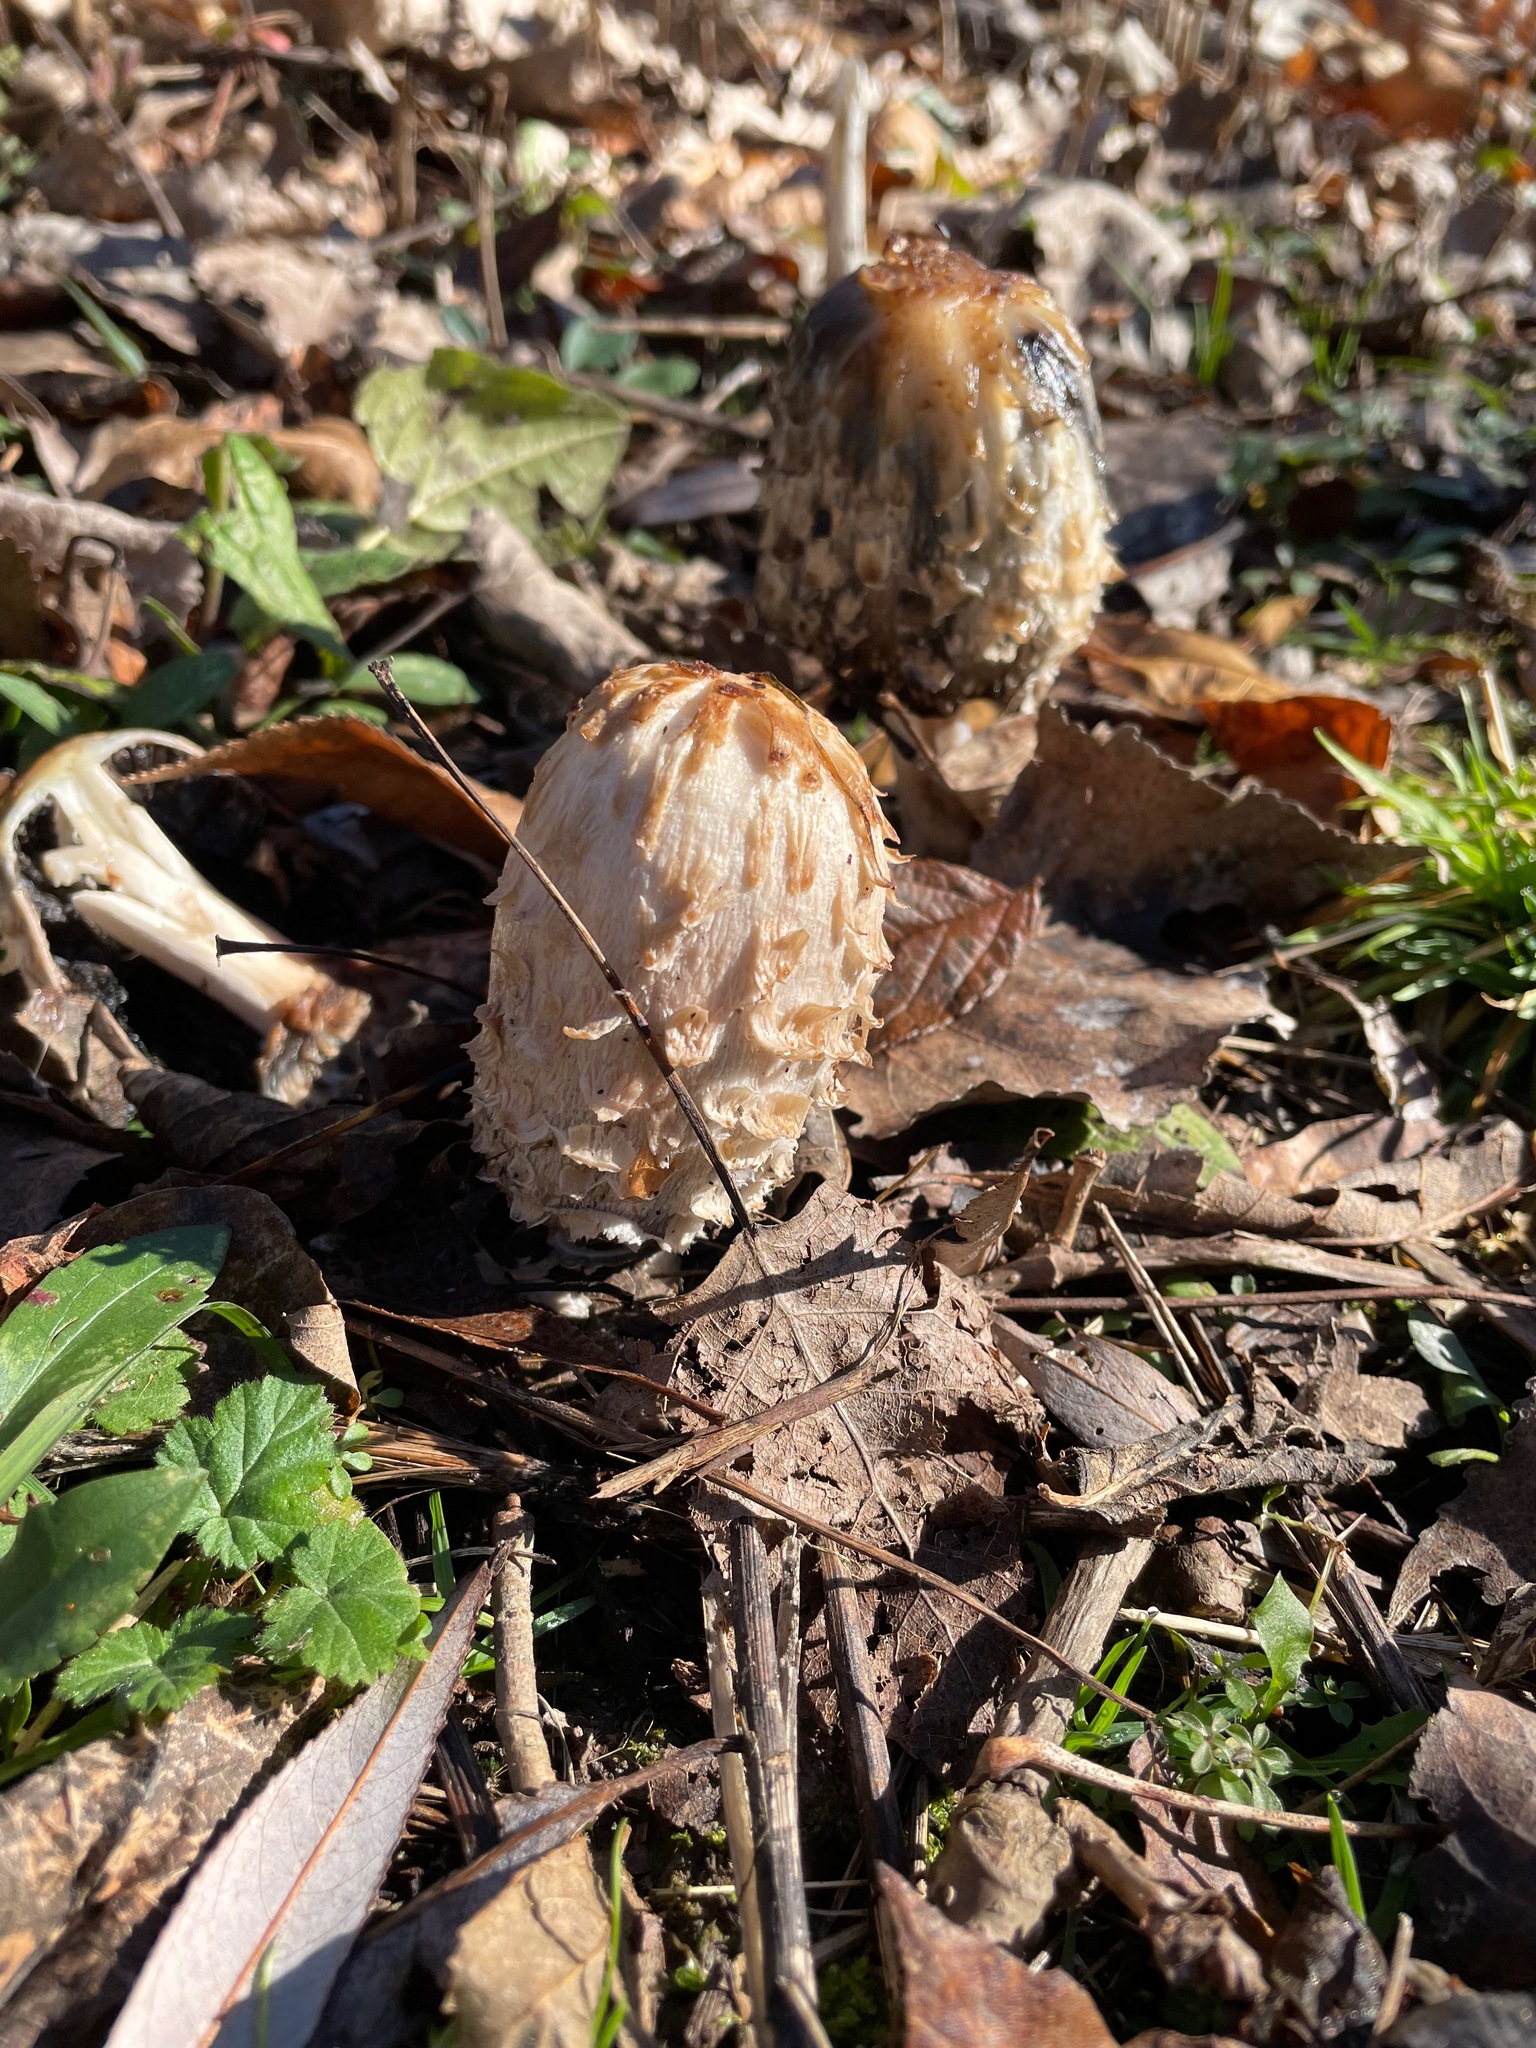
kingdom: Fungi
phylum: Basidiomycota
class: Agaricomycetes
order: Agaricales
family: Agaricaceae
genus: Coprinus
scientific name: Coprinus comatus
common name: Lawyer's wig
